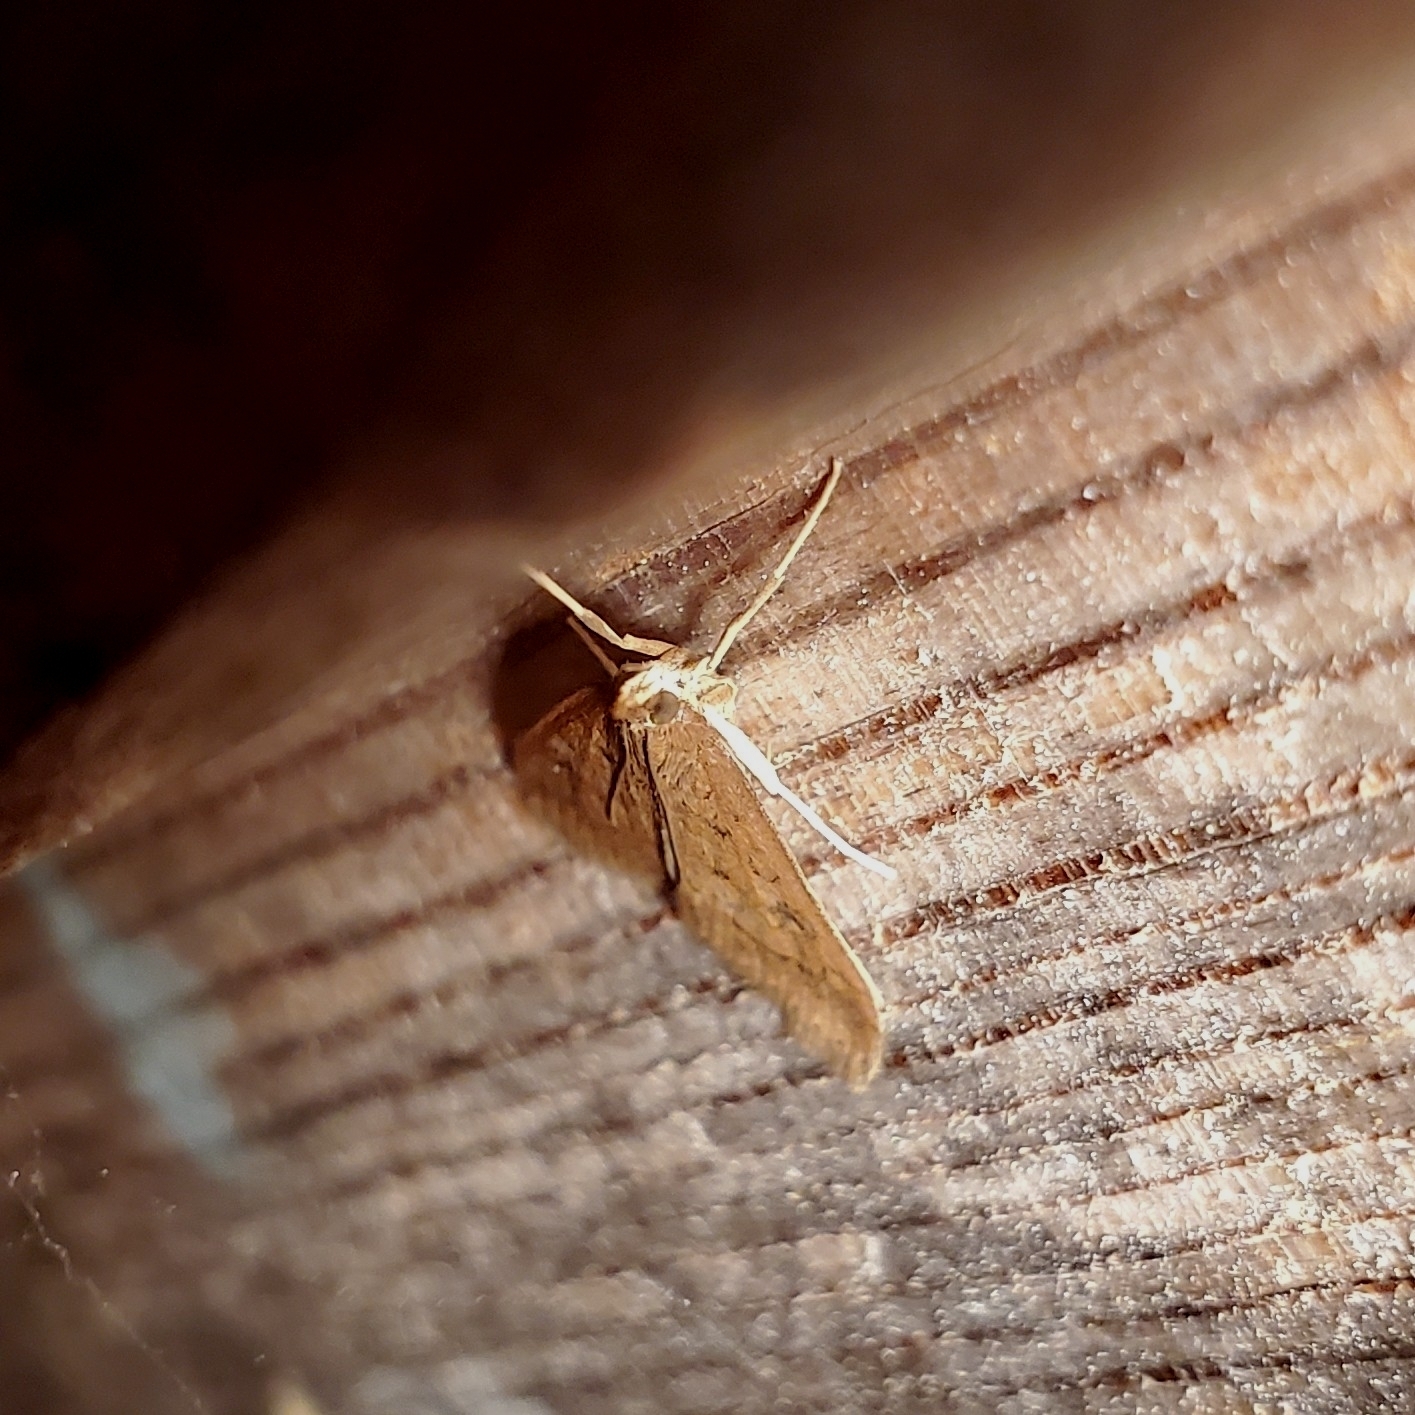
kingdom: Animalia
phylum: Arthropoda
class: Insecta
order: Lepidoptera
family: Crambidae
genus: Udea
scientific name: Udea rubigalis
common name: Celery leaftier moth
